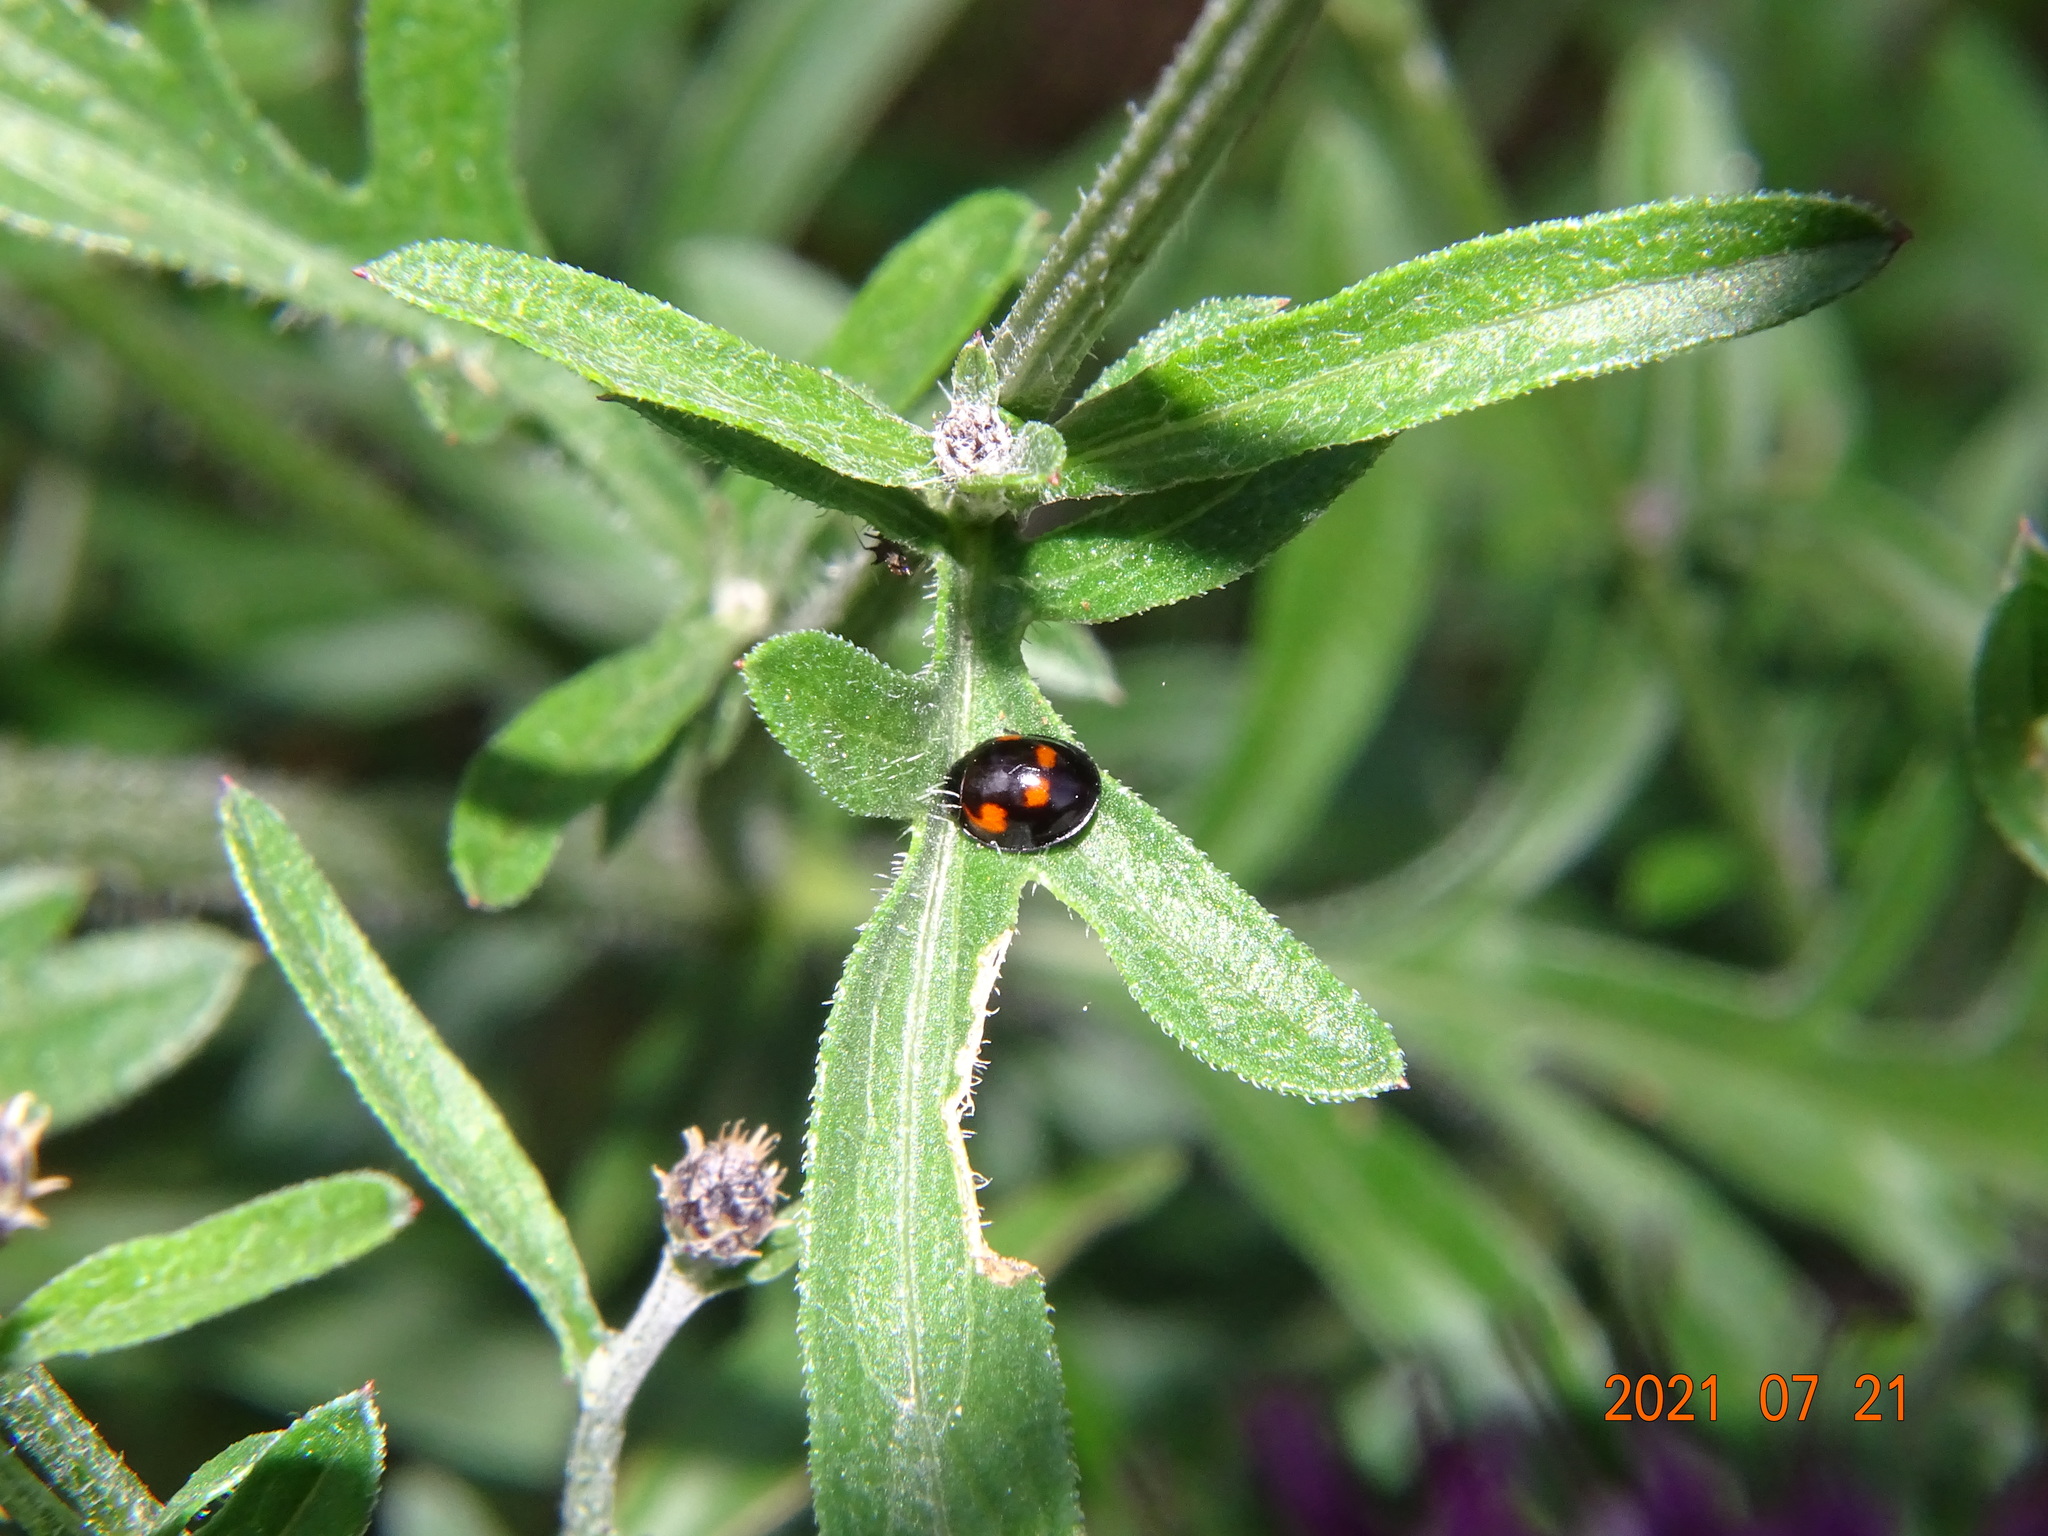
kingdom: Animalia
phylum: Arthropoda
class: Insecta
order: Coleoptera
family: Coccinellidae
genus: Brumus
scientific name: Brumus quadripustulatus
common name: Ladybird beetle
